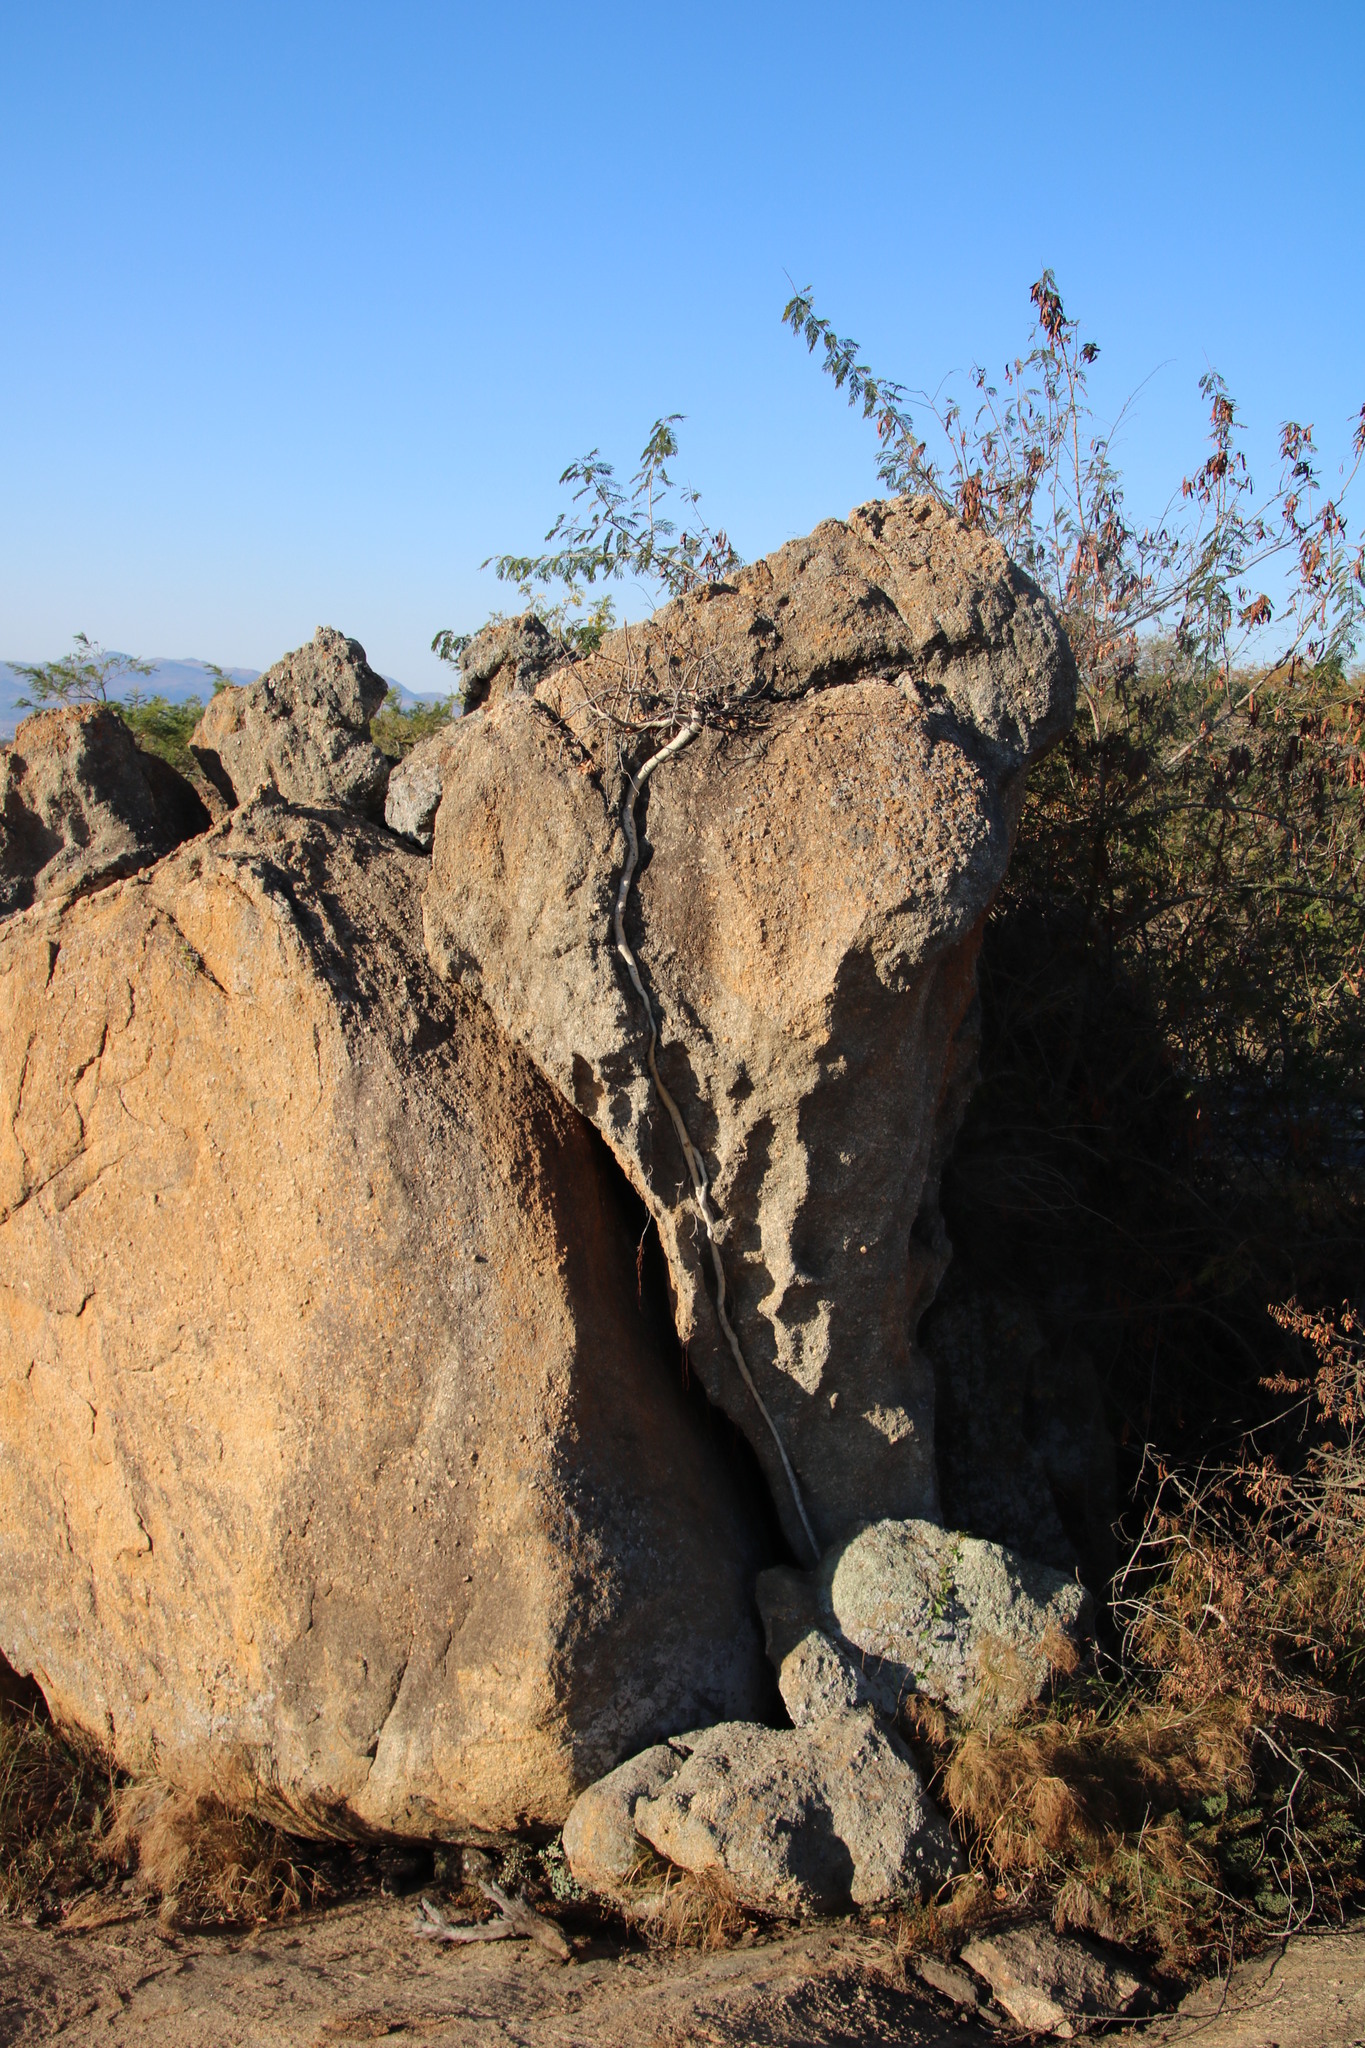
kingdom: Plantae
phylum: Tracheophyta
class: Magnoliopsida
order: Rosales
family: Moraceae
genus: Ficus
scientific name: Ficus glumosa
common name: Hairy rock fig
